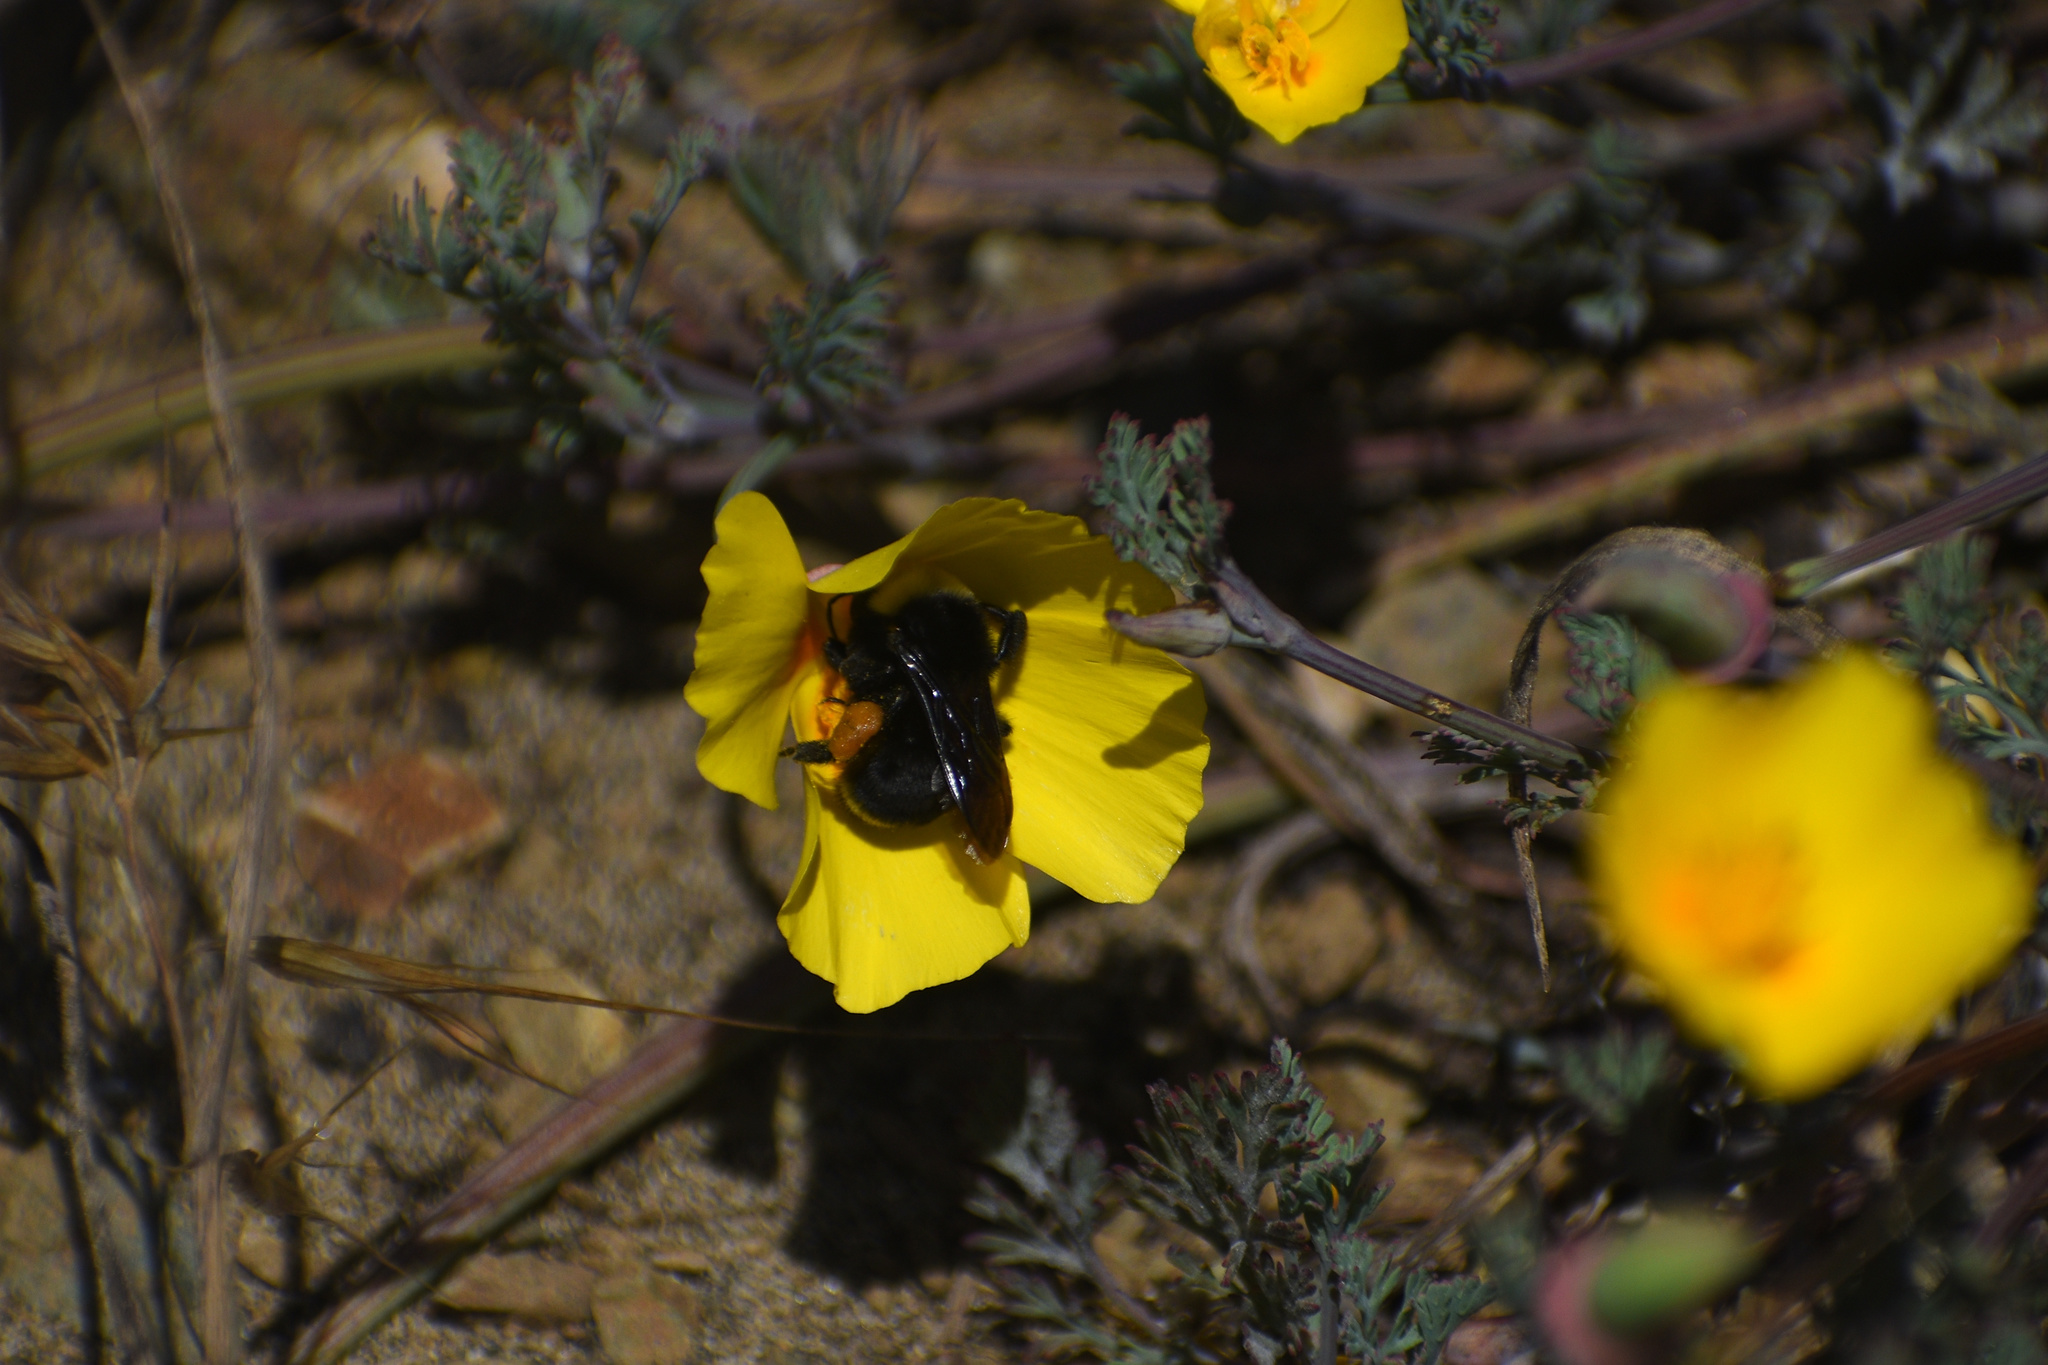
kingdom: Animalia
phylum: Arthropoda
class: Insecta
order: Hymenoptera
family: Apidae
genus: Pyrobombus
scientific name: Pyrobombus
